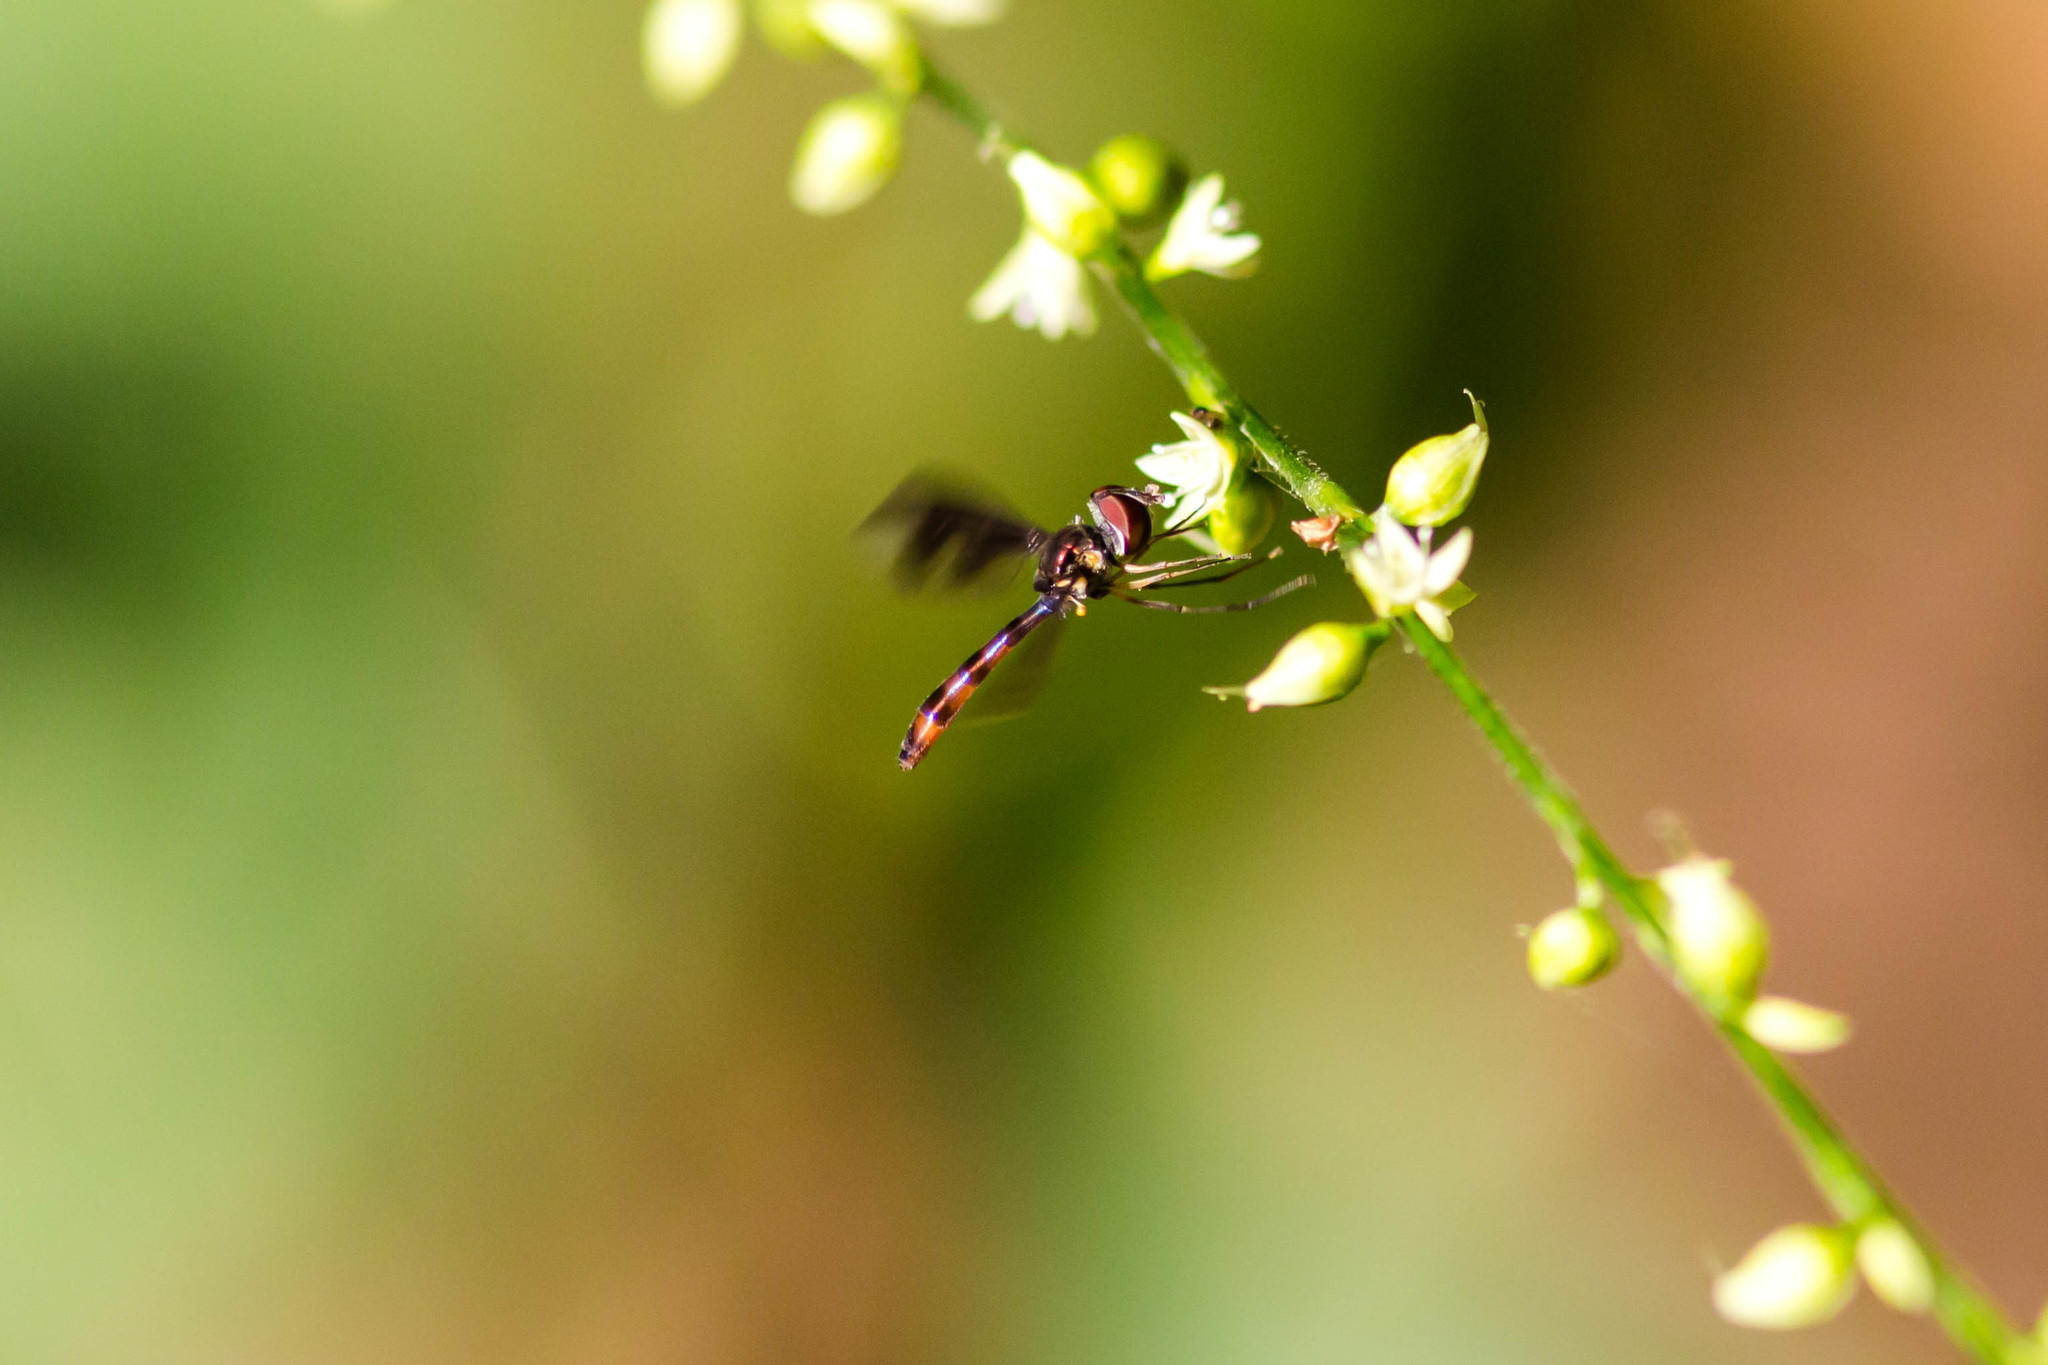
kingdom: Animalia
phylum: Arthropoda
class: Insecta
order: Diptera
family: Syrphidae
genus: Ocyptamus
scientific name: Ocyptamus fuscipennis
